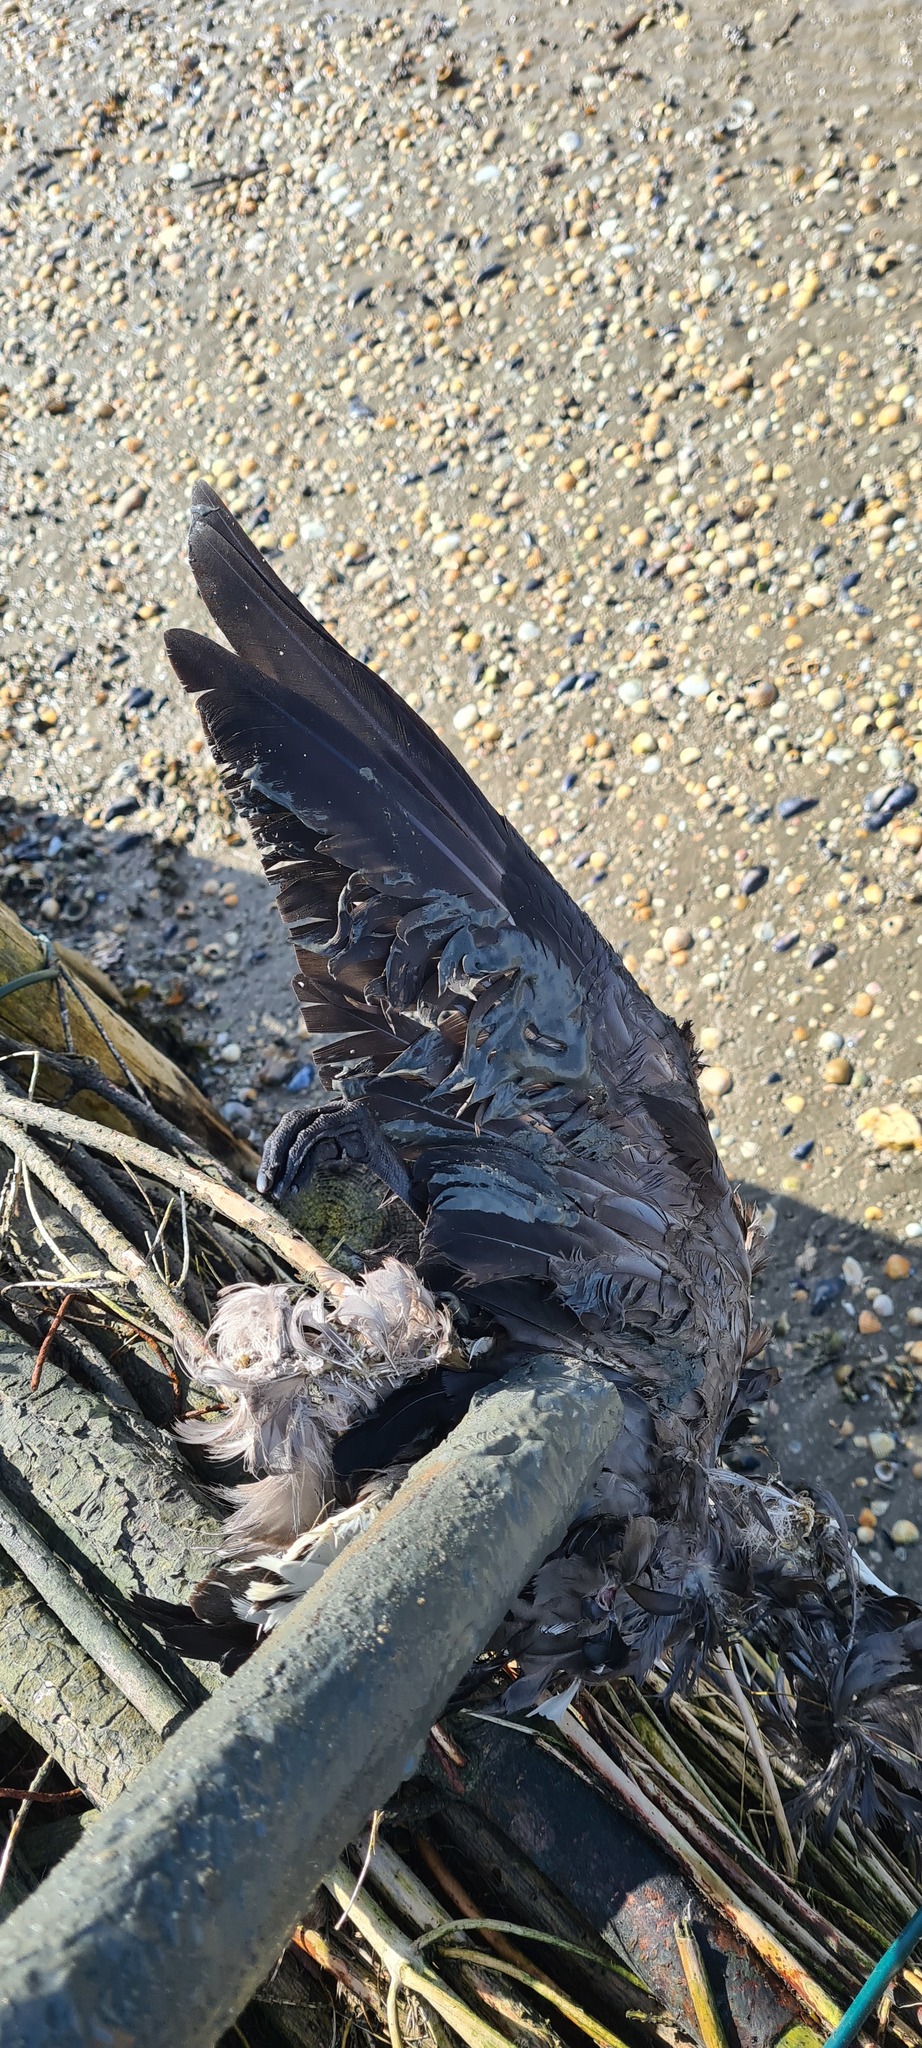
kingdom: Animalia
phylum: Chordata
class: Aves
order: Anseriformes
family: Anatidae
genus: Branta
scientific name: Branta leucopsis
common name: Barnacle goose
